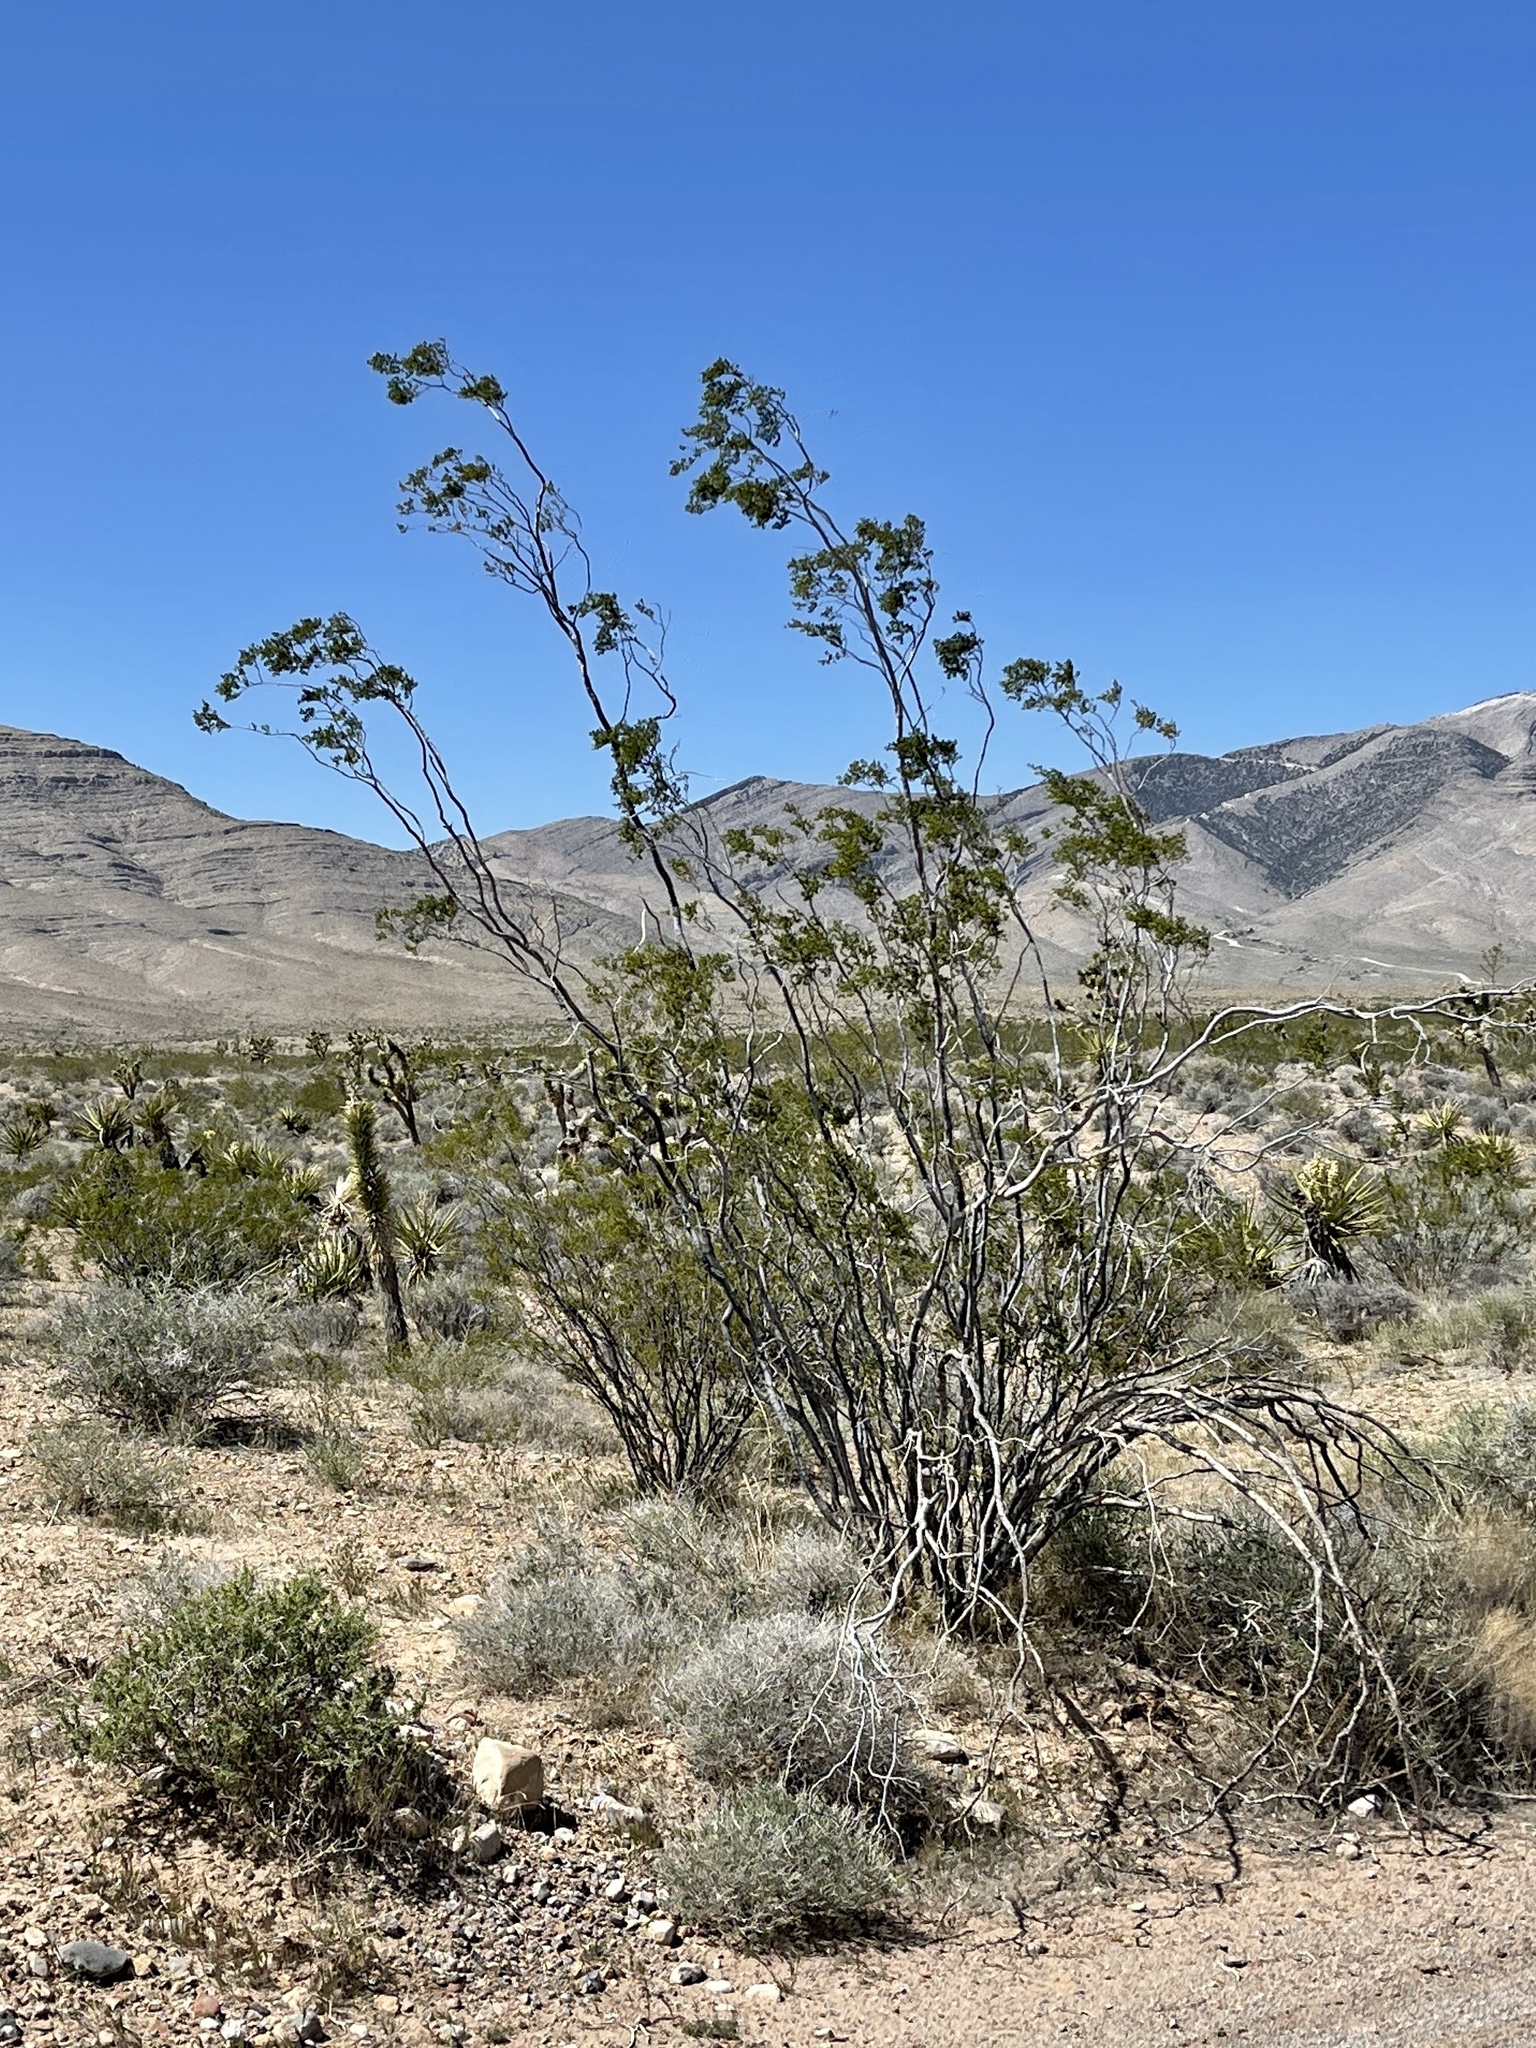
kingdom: Plantae
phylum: Tracheophyta
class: Magnoliopsida
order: Zygophyllales
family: Zygophyllaceae
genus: Larrea
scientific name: Larrea tridentata
